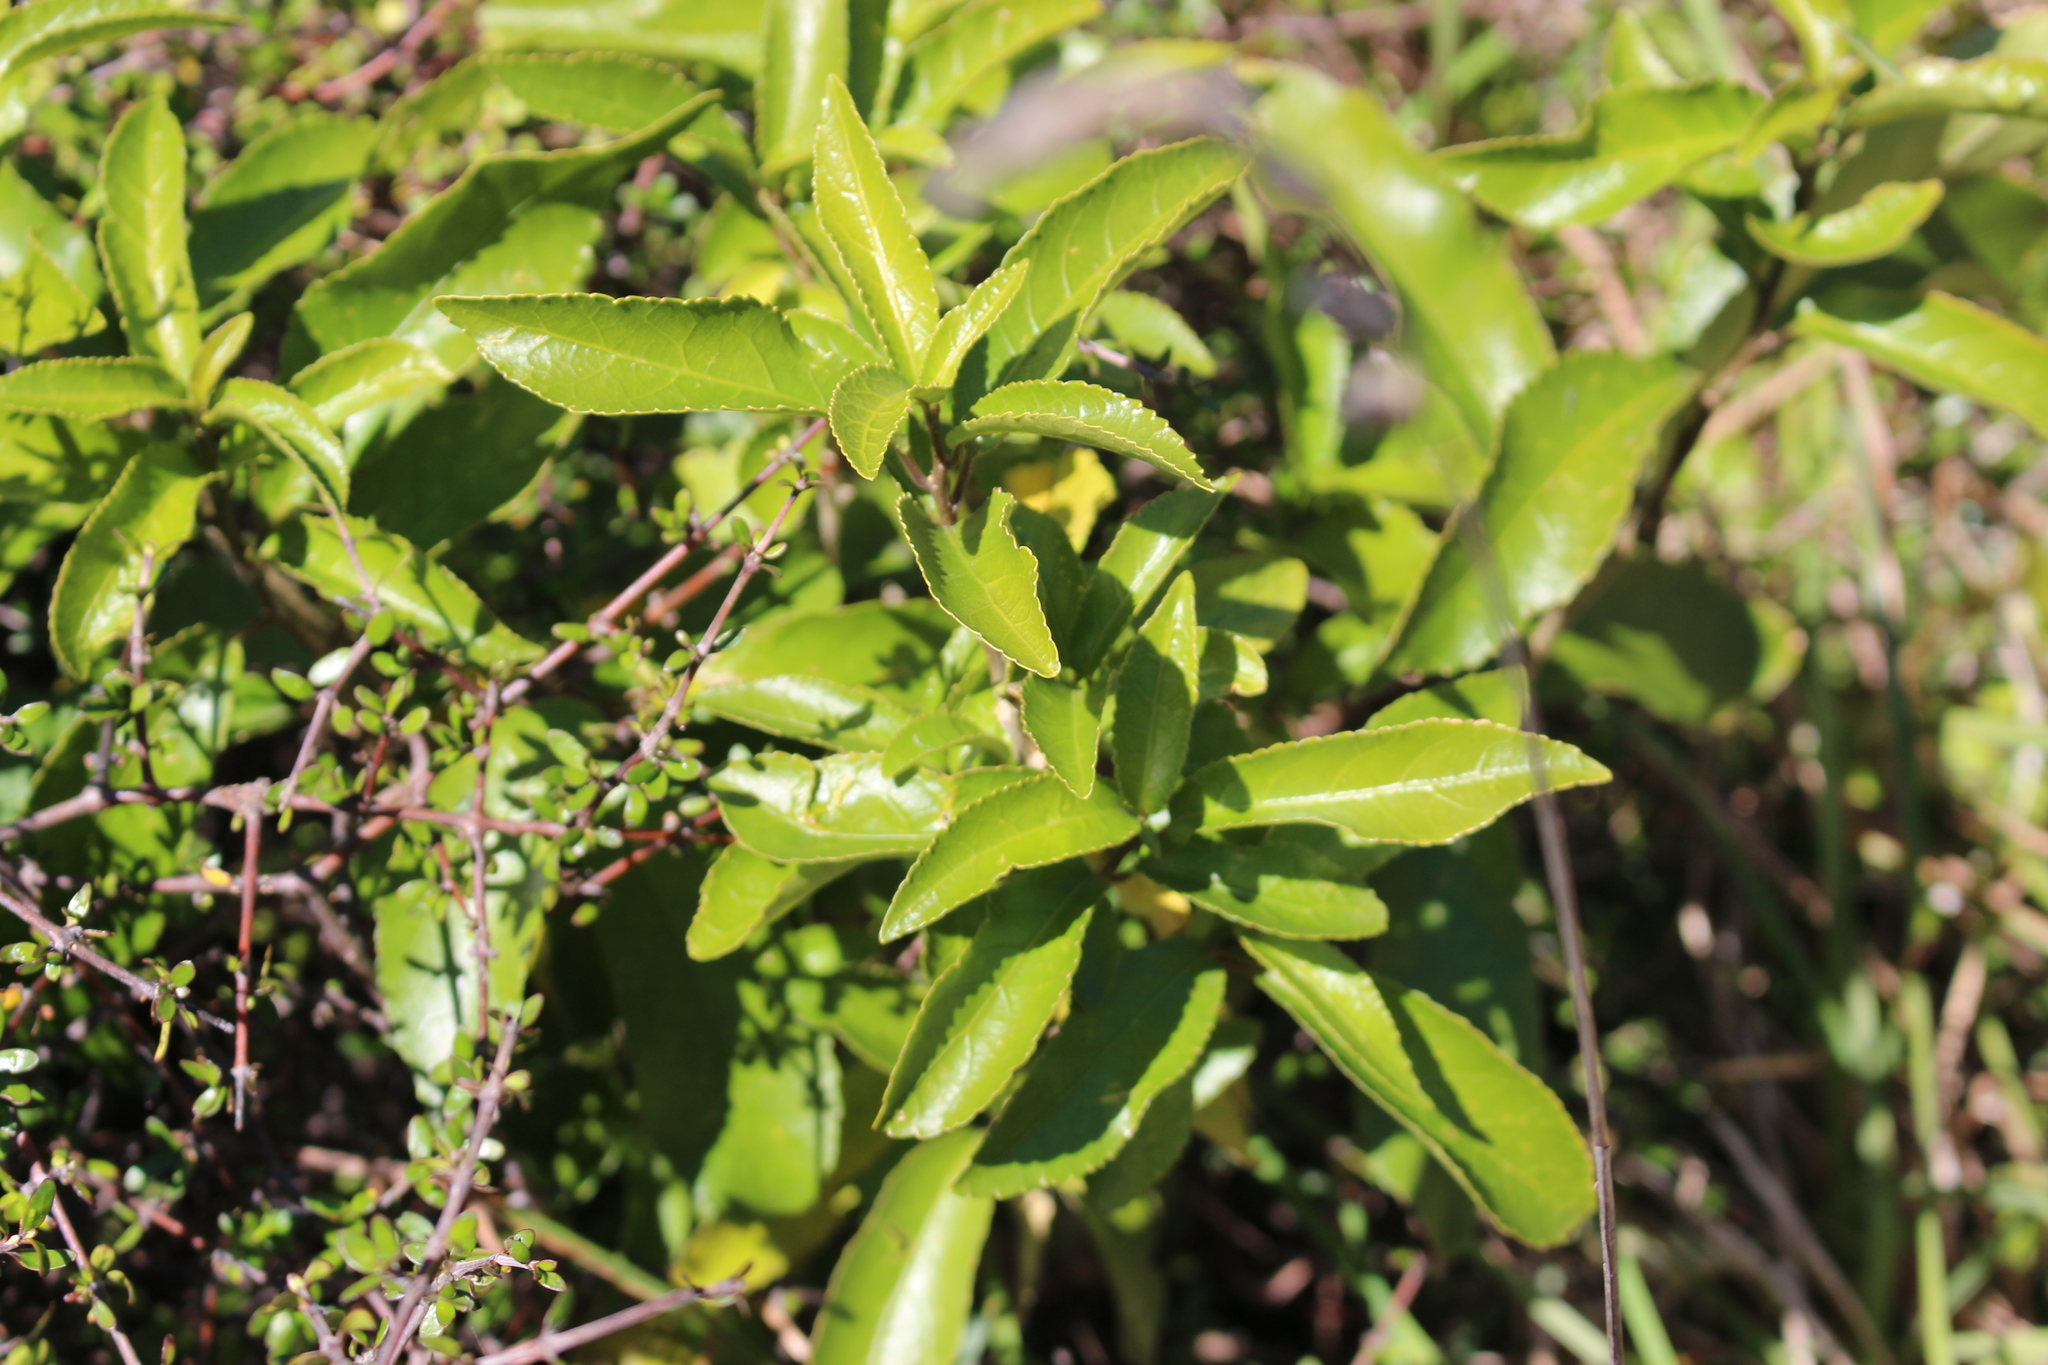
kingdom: Plantae
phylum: Tracheophyta
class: Magnoliopsida
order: Malpighiales
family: Violaceae
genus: Melicytus
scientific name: Melicytus ramiflorus
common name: Mahoe
